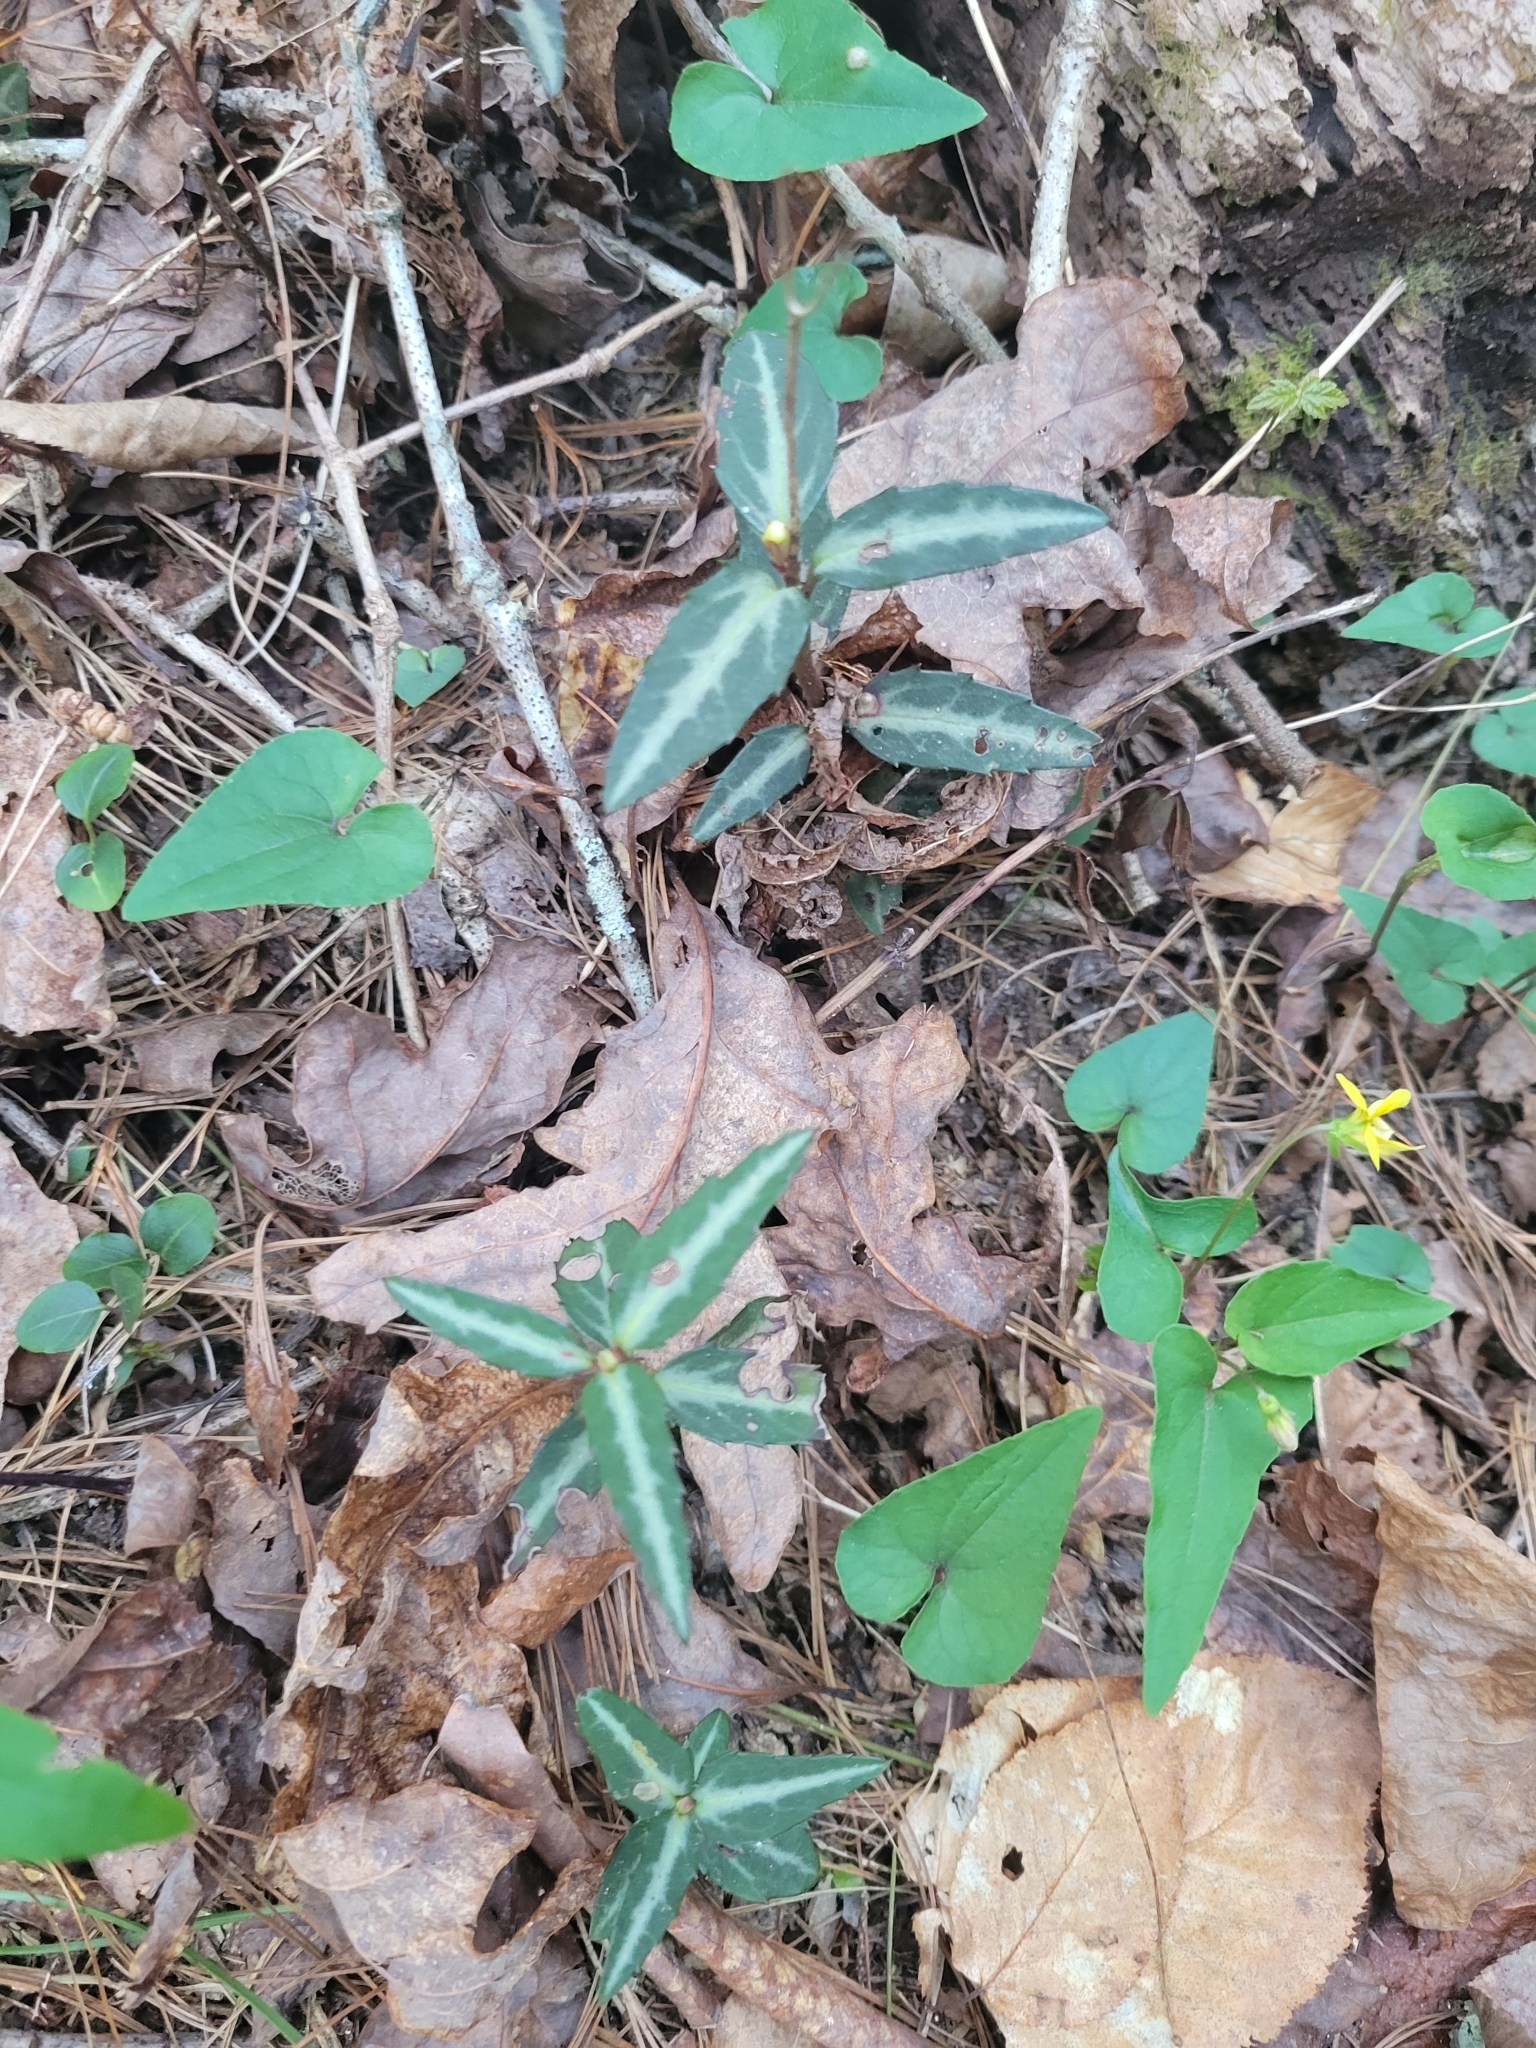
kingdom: Plantae
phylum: Tracheophyta
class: Magnoliopsida
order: Ericales
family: Ericaceae
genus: Chimaphila
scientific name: Chimaphila maculata
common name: Spotted pipsissewa
